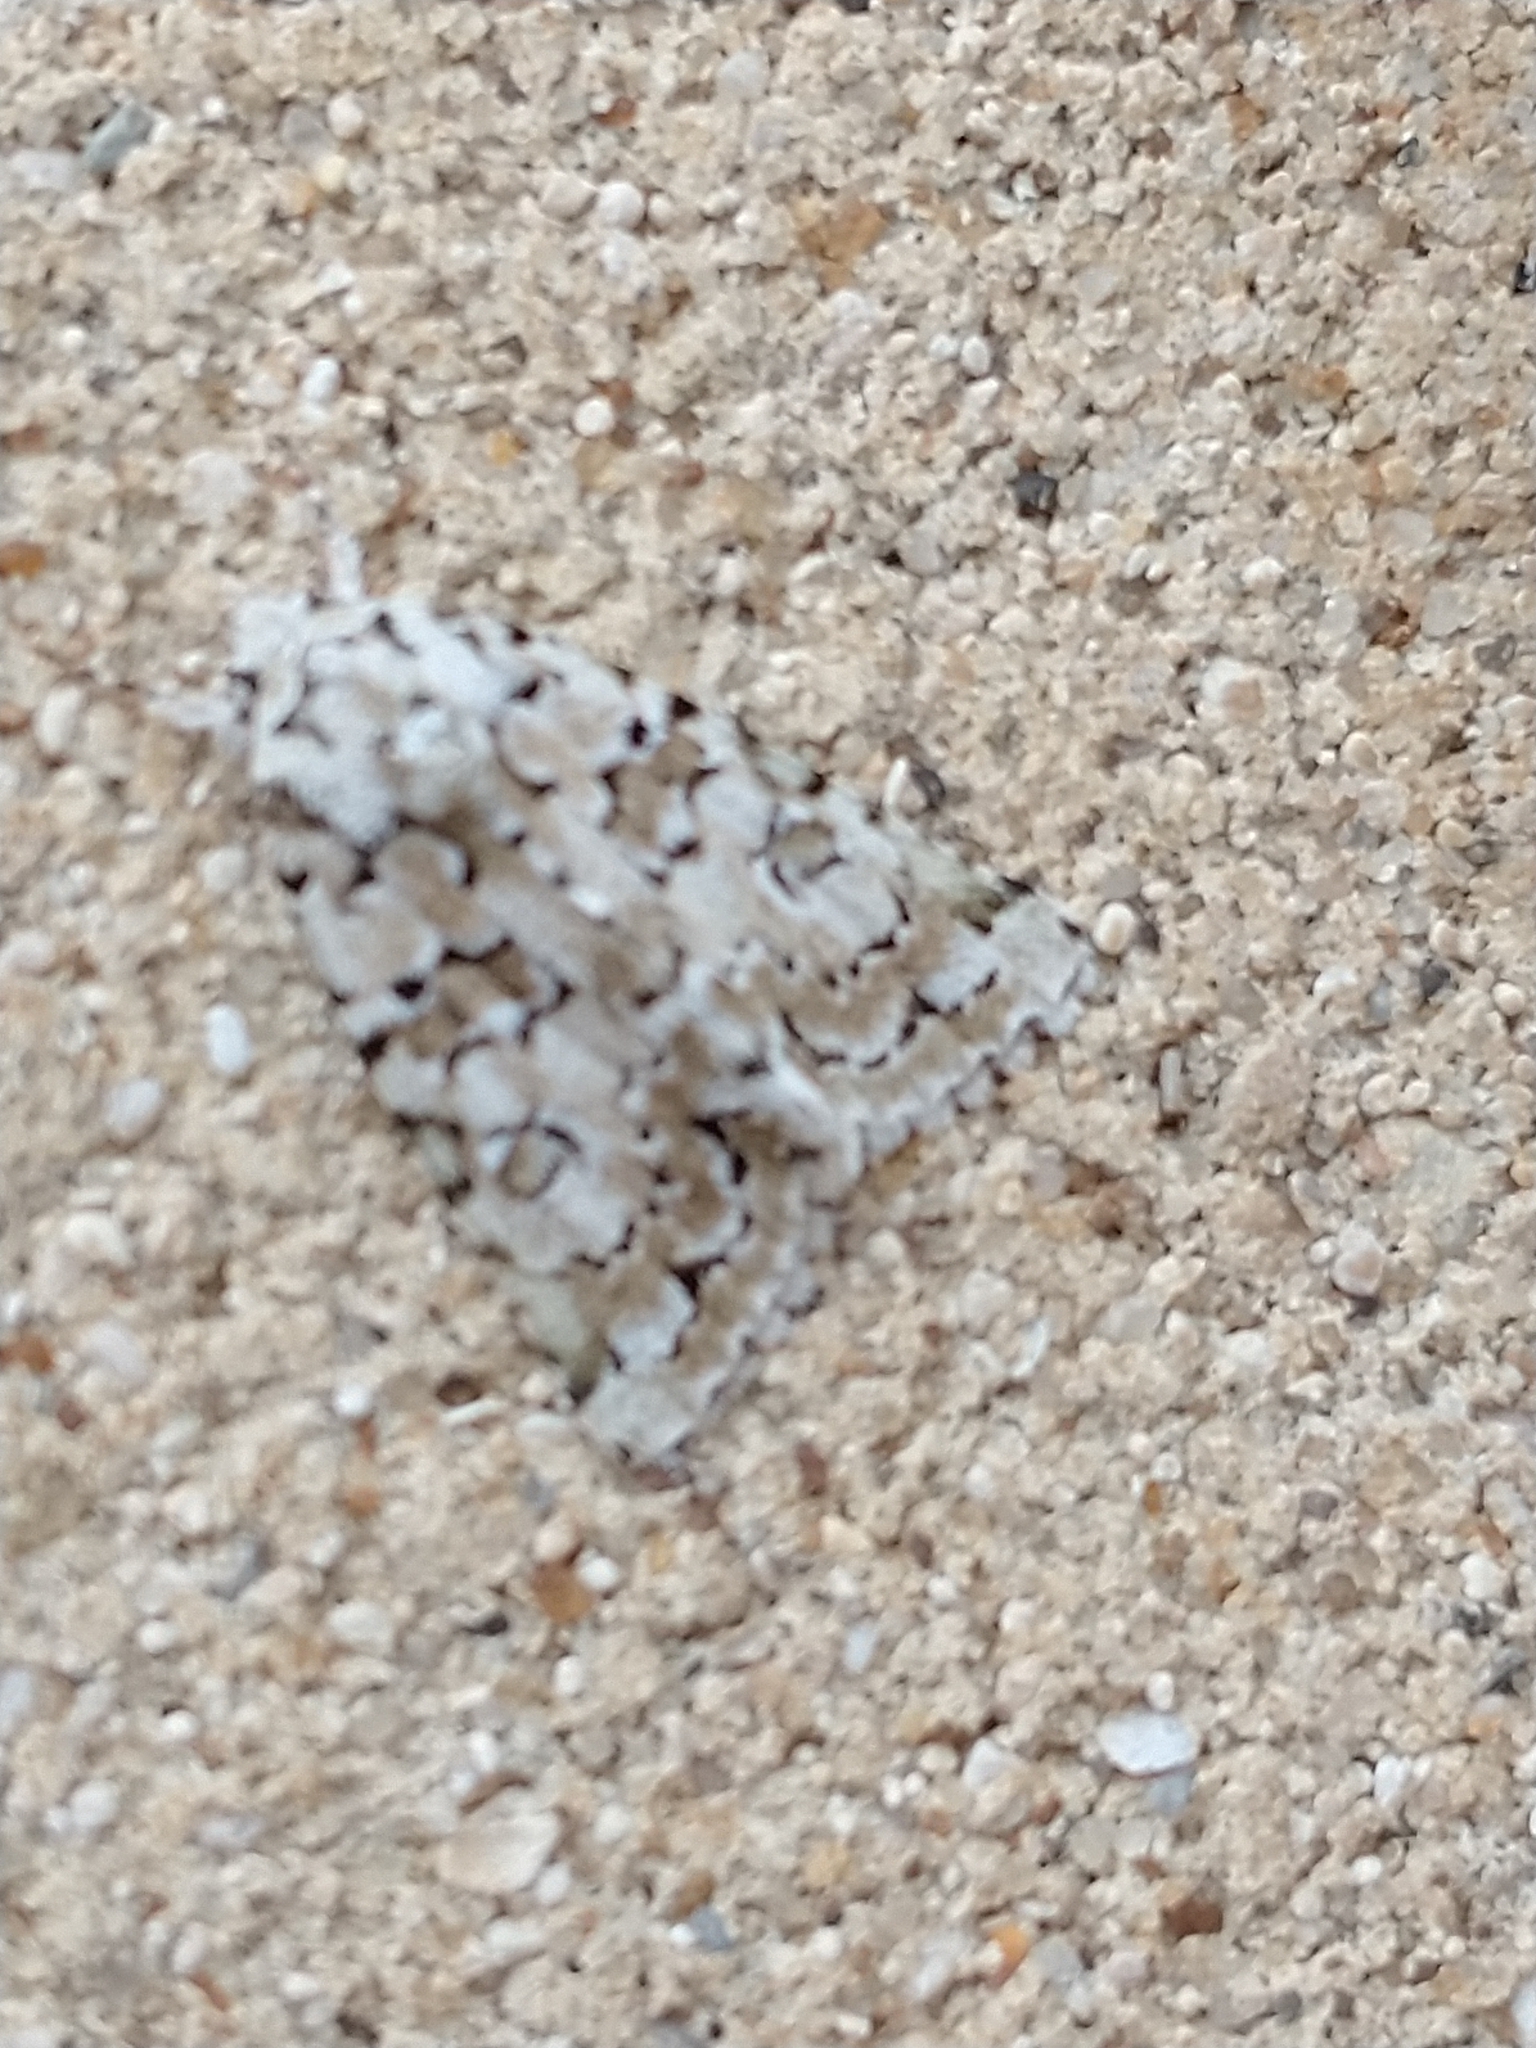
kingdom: Animalia
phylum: Arthropoda
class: Insecta
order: Lepidoptera
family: Noctuidae
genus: Nyctobrya
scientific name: Nyctobrya muralis
